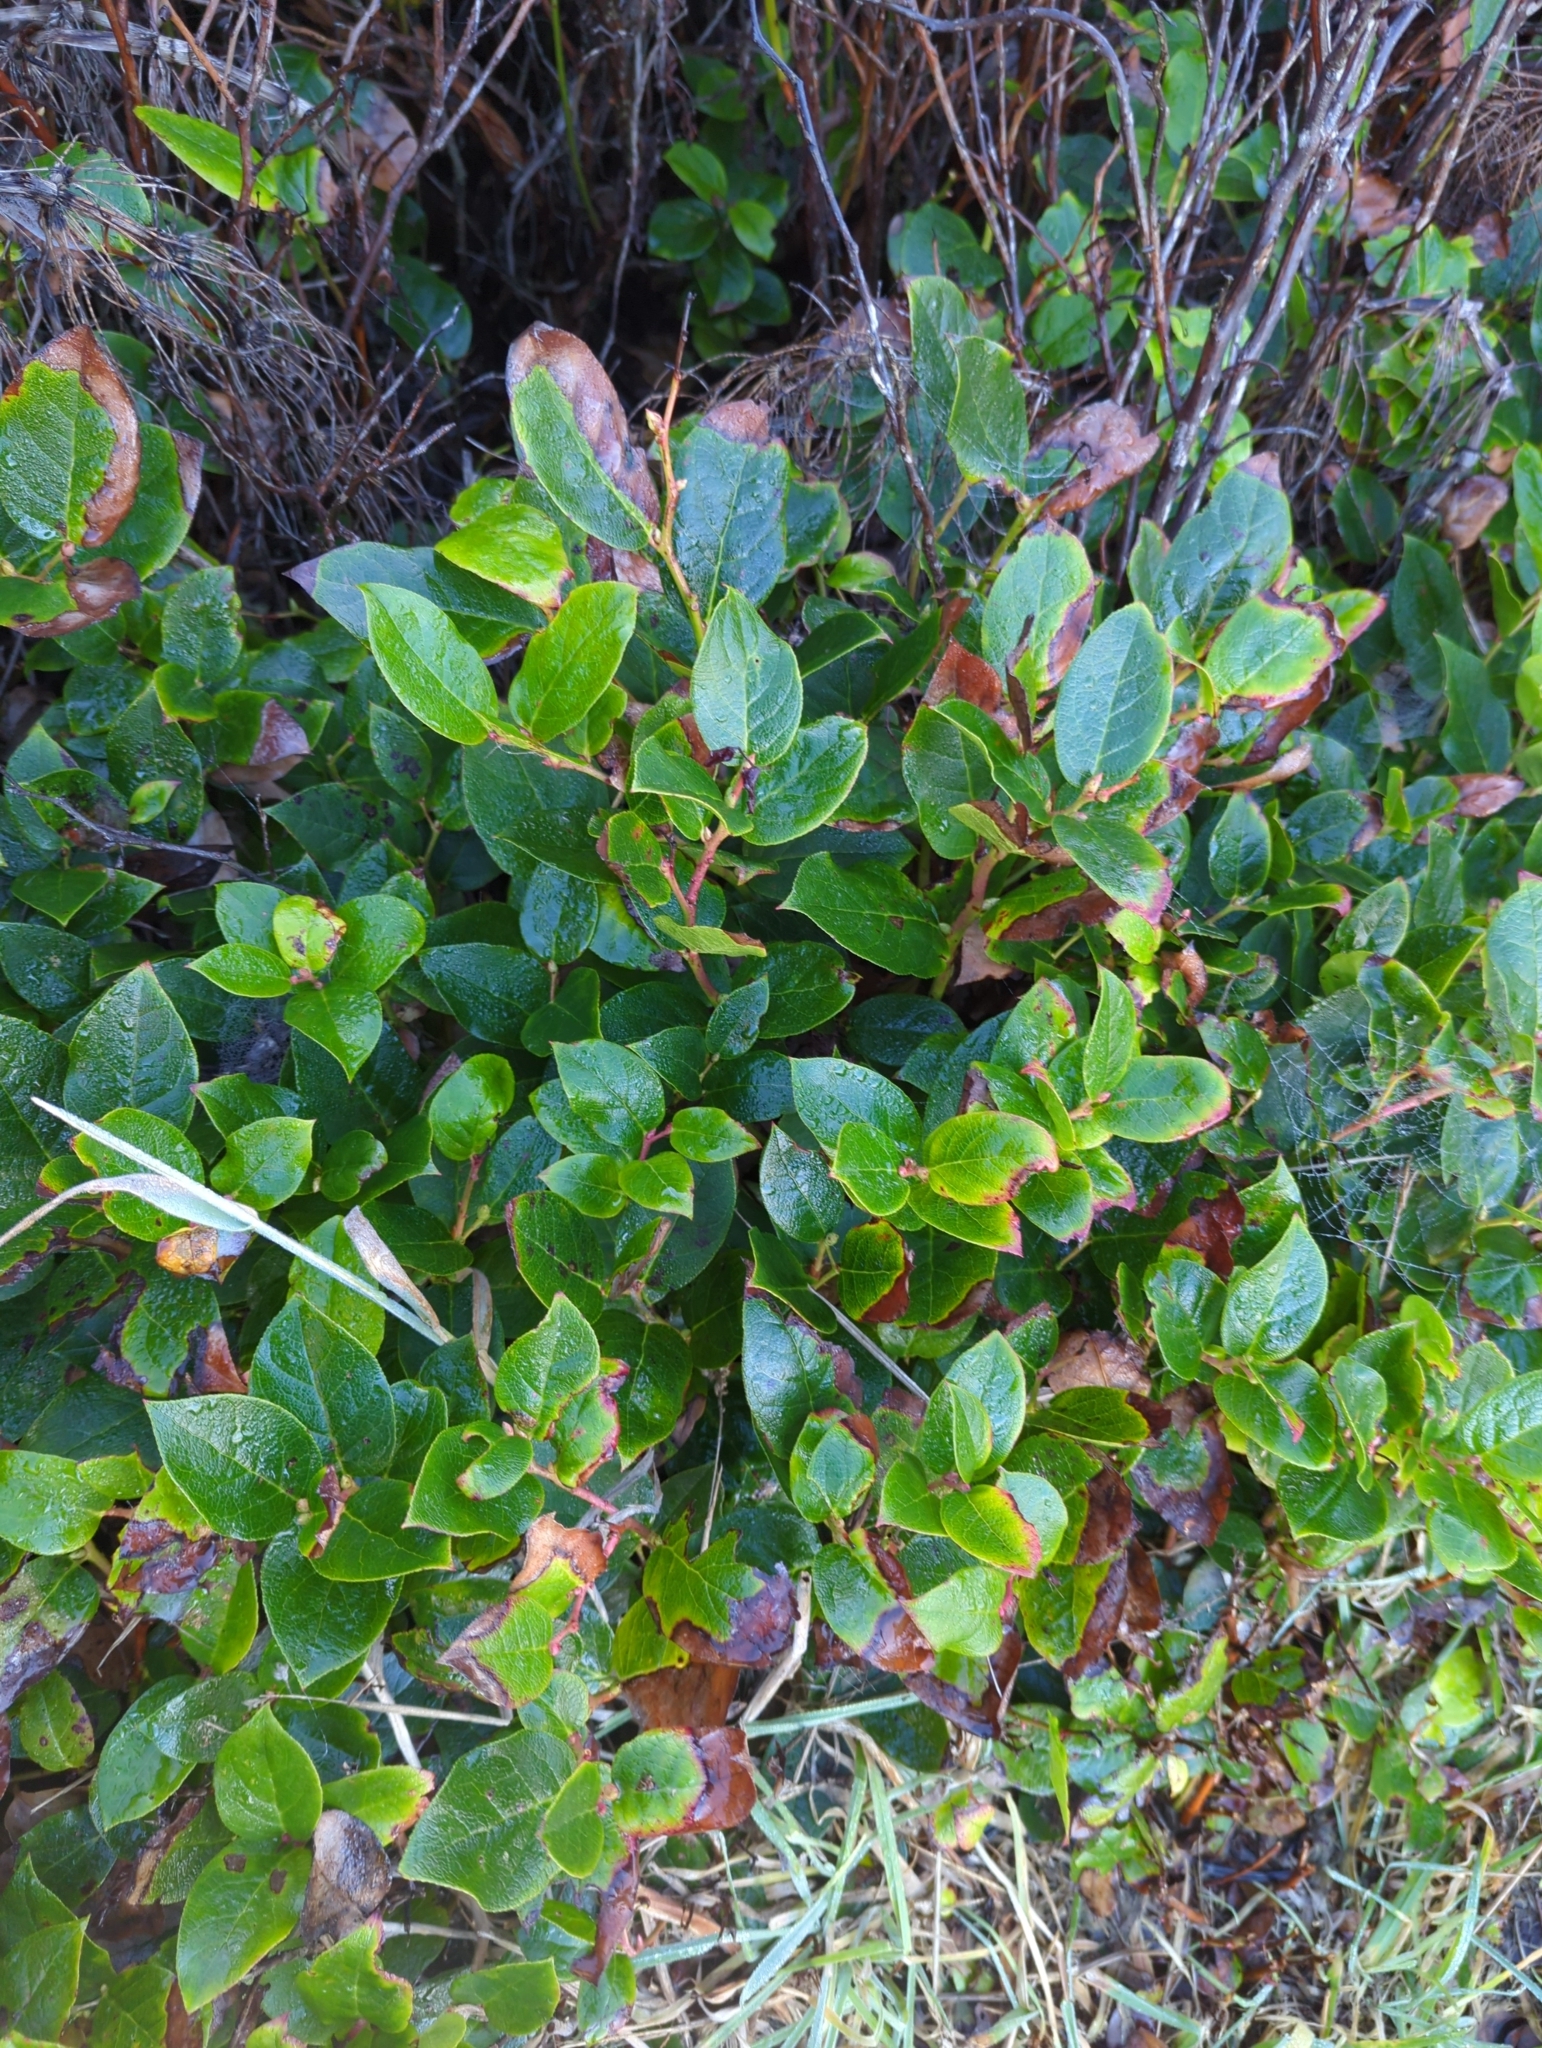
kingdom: Plantae
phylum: Tracheophyta
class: Magnoliopsida
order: Ericales
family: Ericaceae
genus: Gaultheria
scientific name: Gaultheria shallon
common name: Shallon
